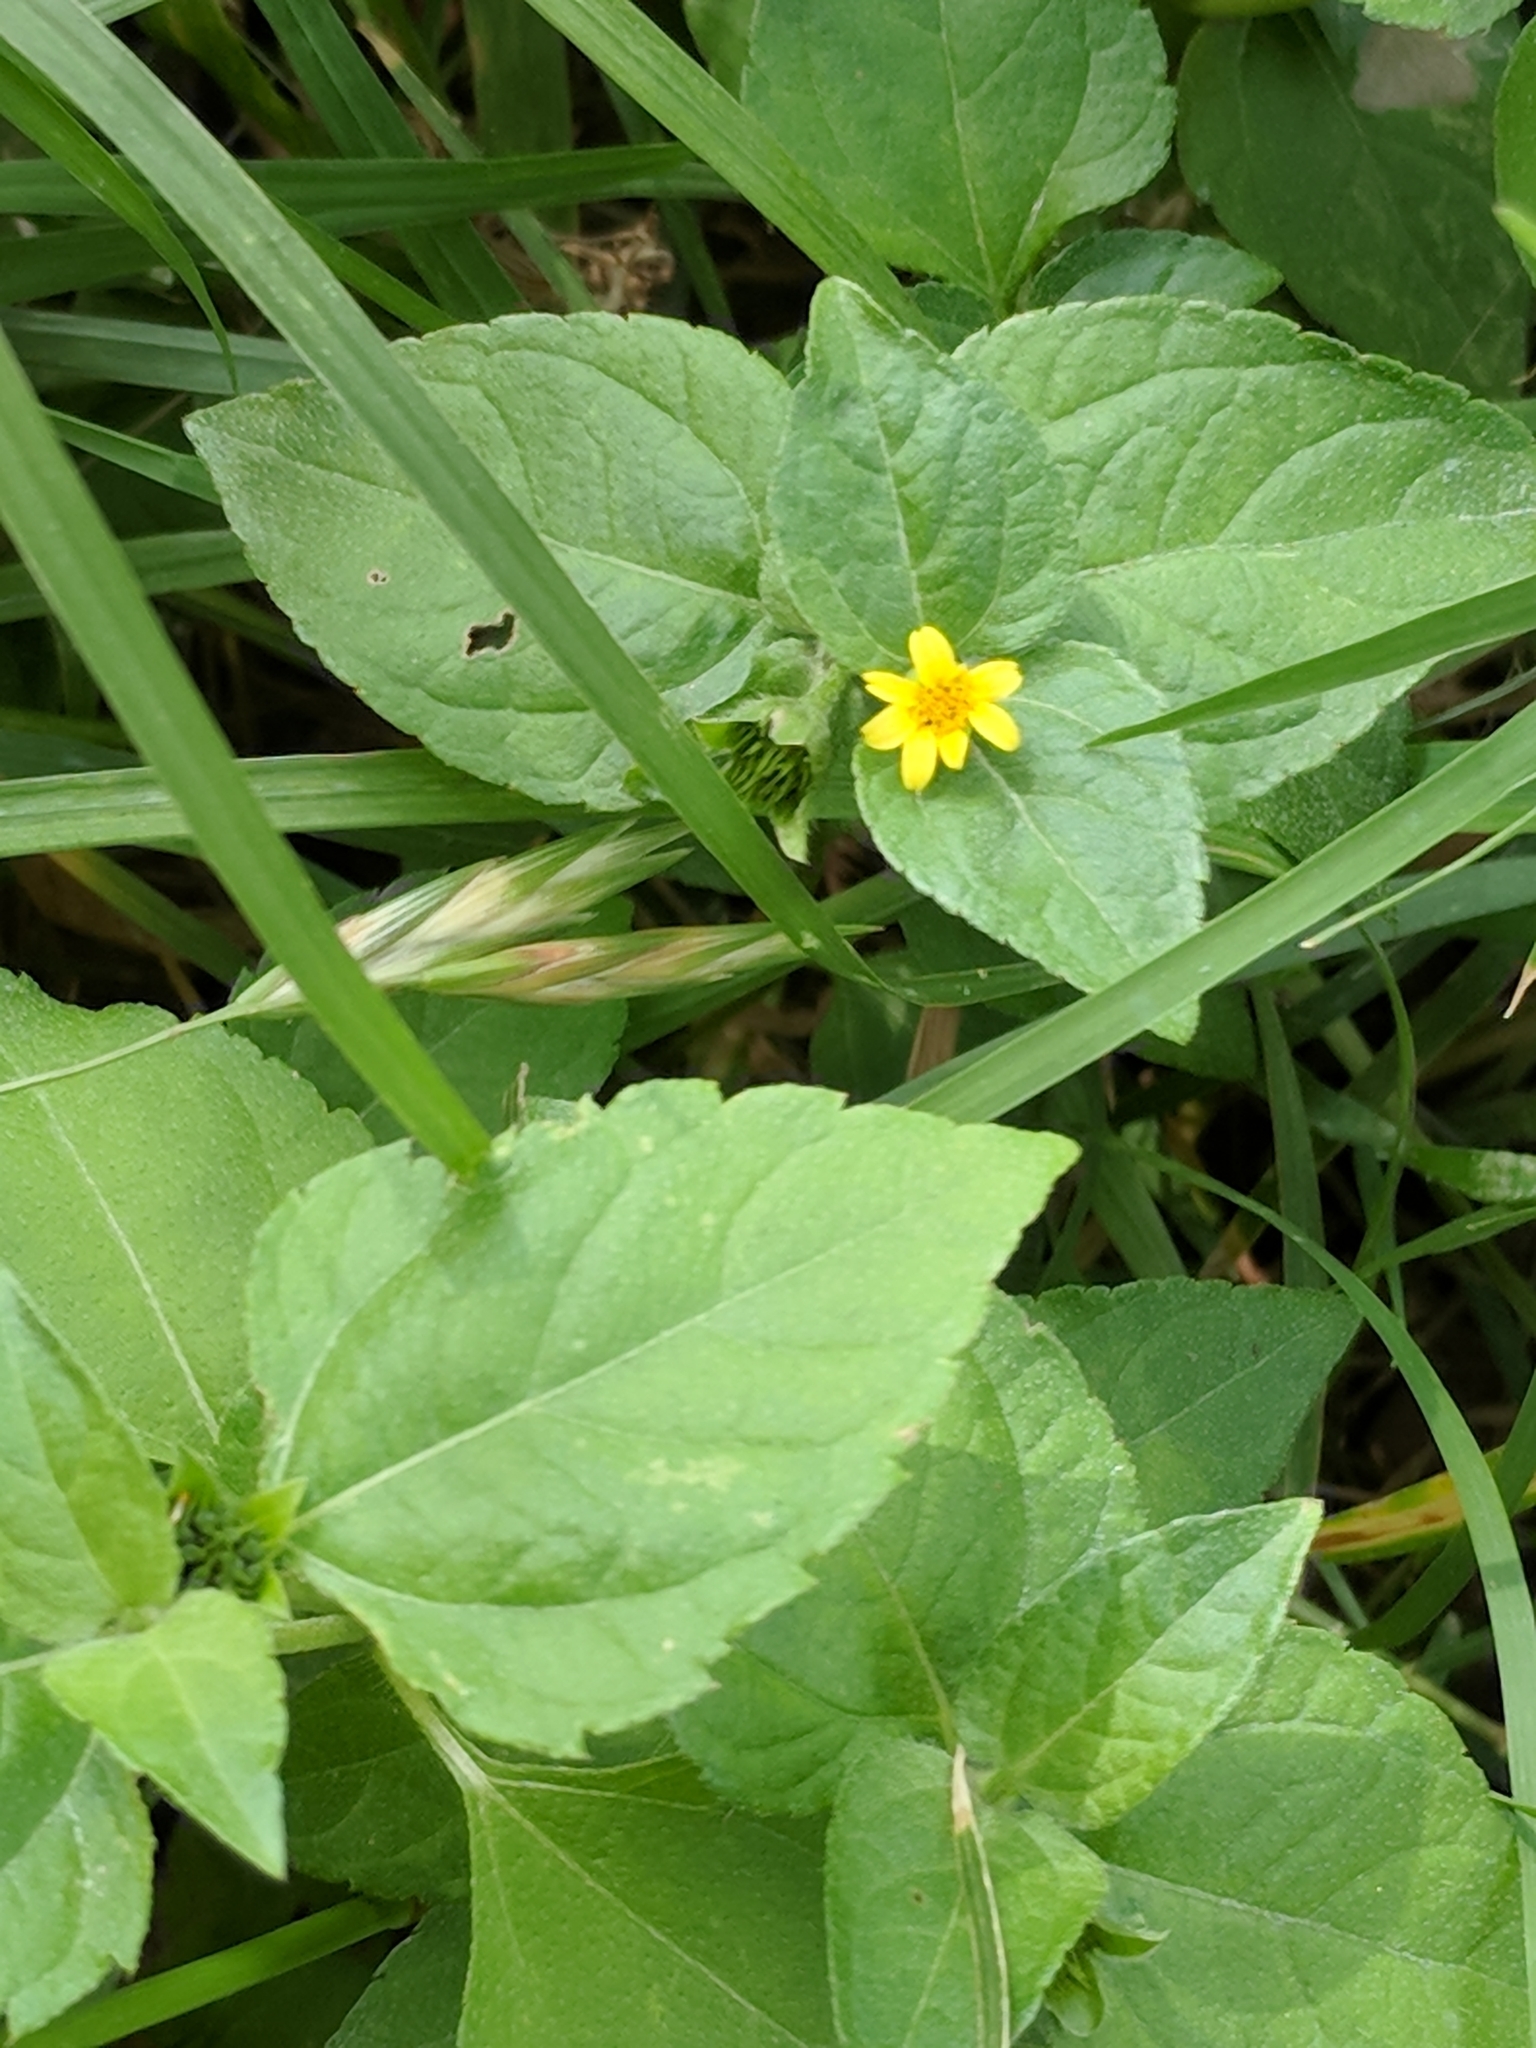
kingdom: Plantae
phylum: Tracheophyta
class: Magnoliopsida
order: Asterales
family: Asteraceae
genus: Calyptocarpus
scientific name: Calyptocarpus vialis
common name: Straggler daisy
